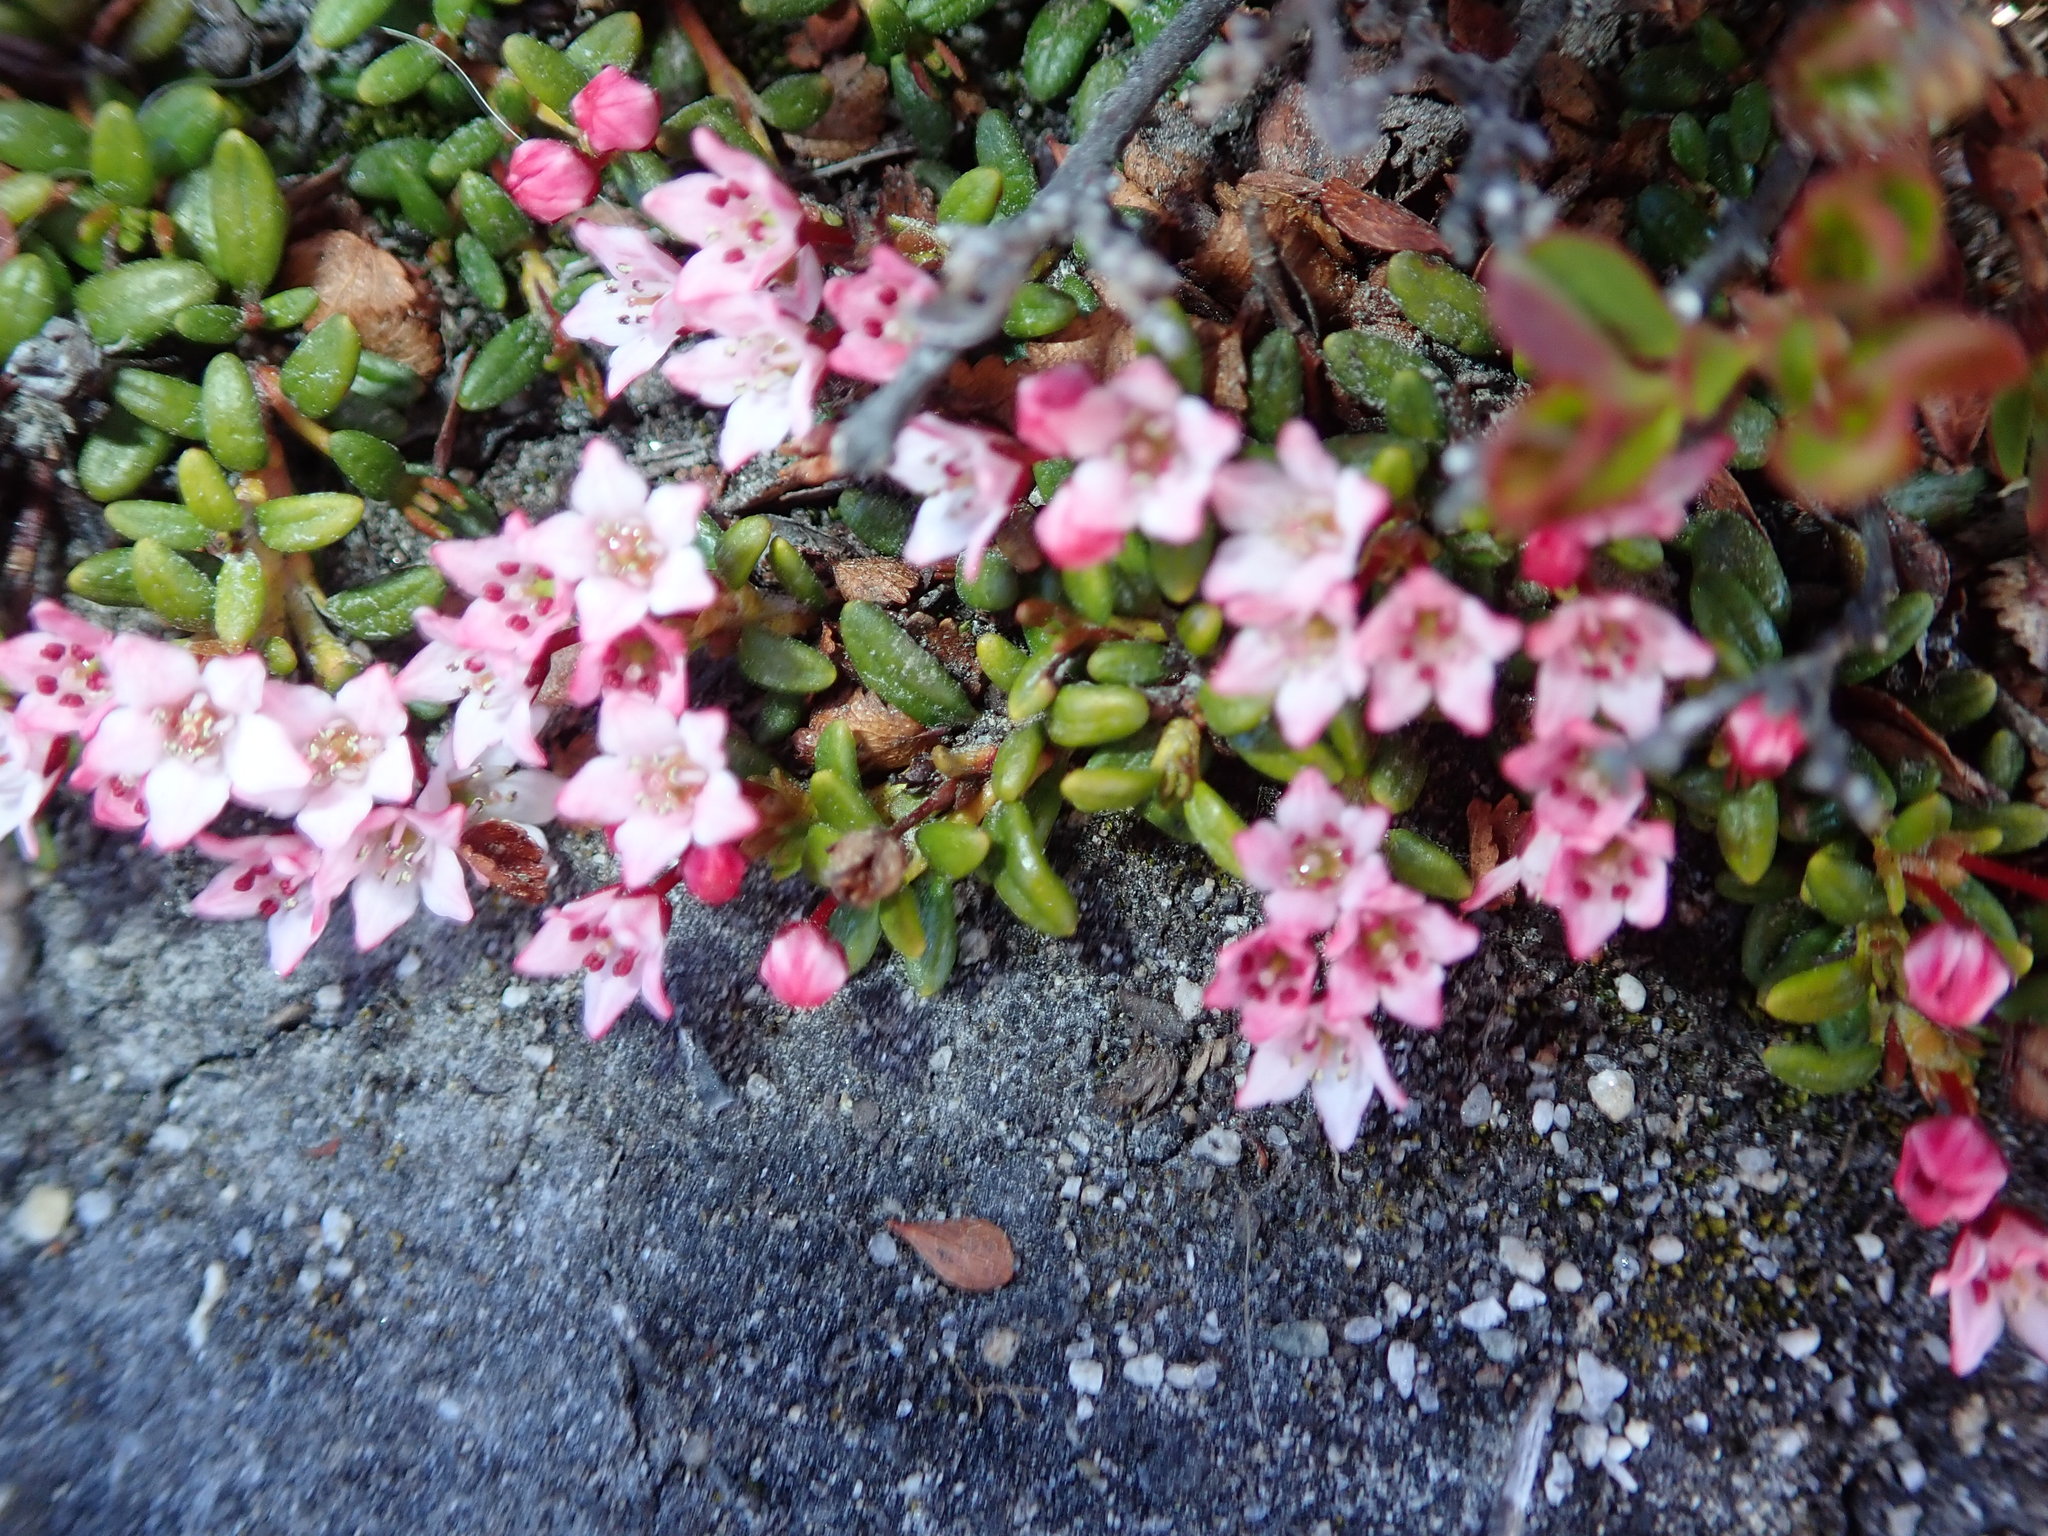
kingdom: Plantae
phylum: Tracheophyta
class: Magnoliopsida
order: Ericales
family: Ericaceae
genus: Kalmia
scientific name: Kalmia procumbens
